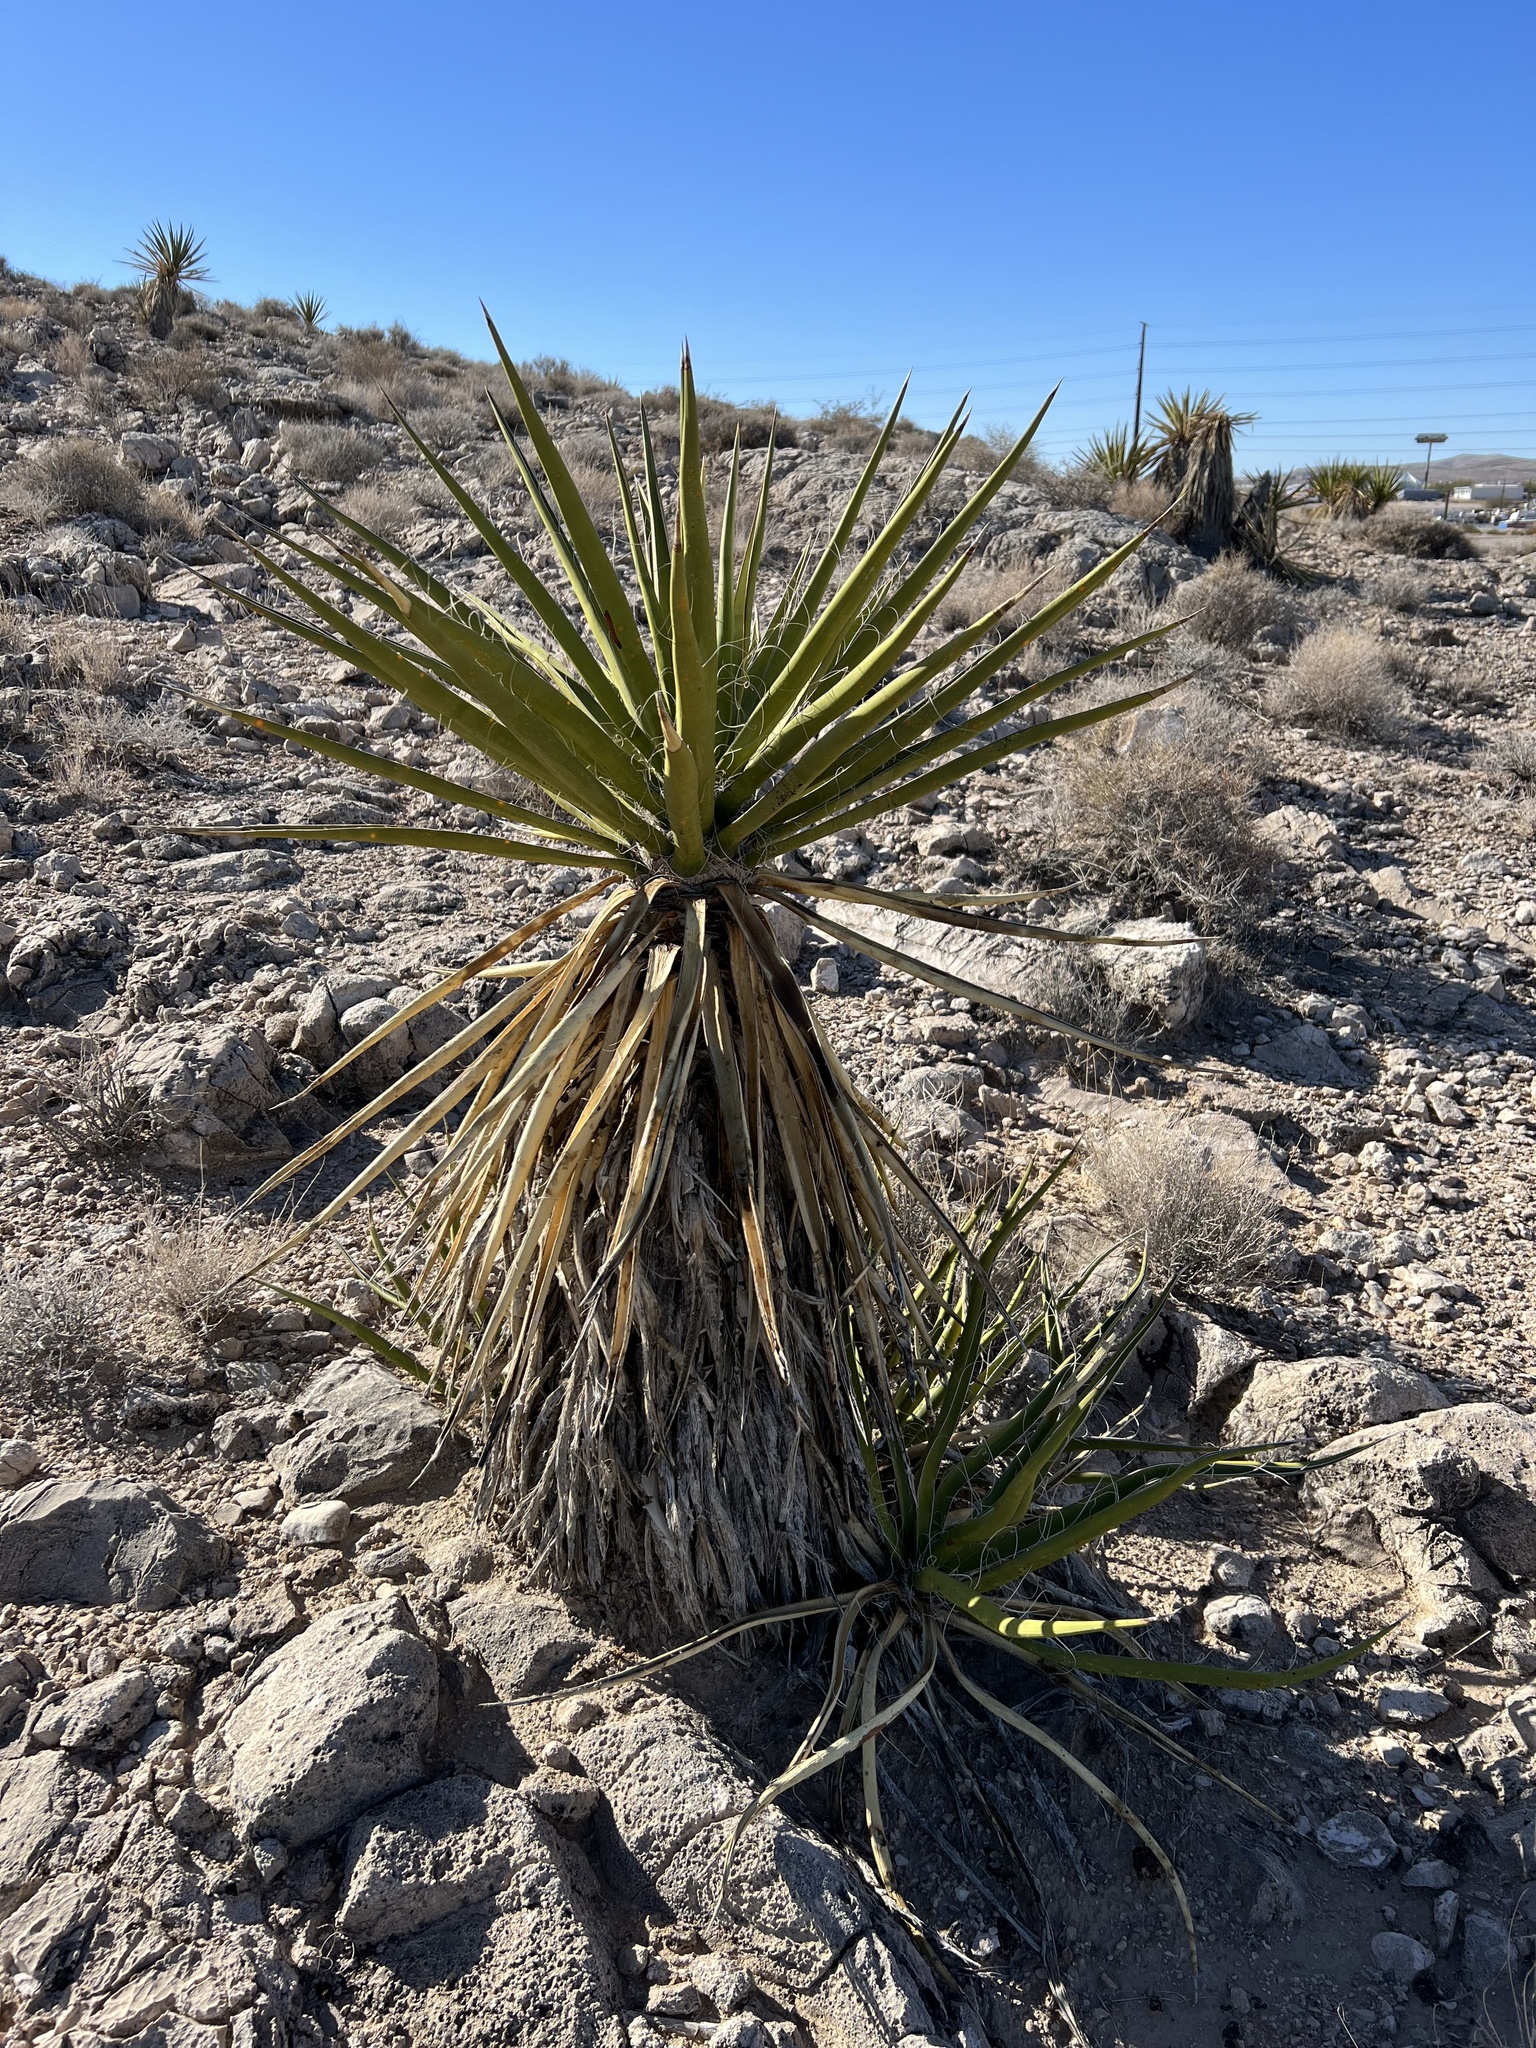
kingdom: Plantae
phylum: Tracheophyta
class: Liliopsida
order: Asparagales
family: Asparagaceae
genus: Yucca
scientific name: Yucca schidigera
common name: Mojave yucca
